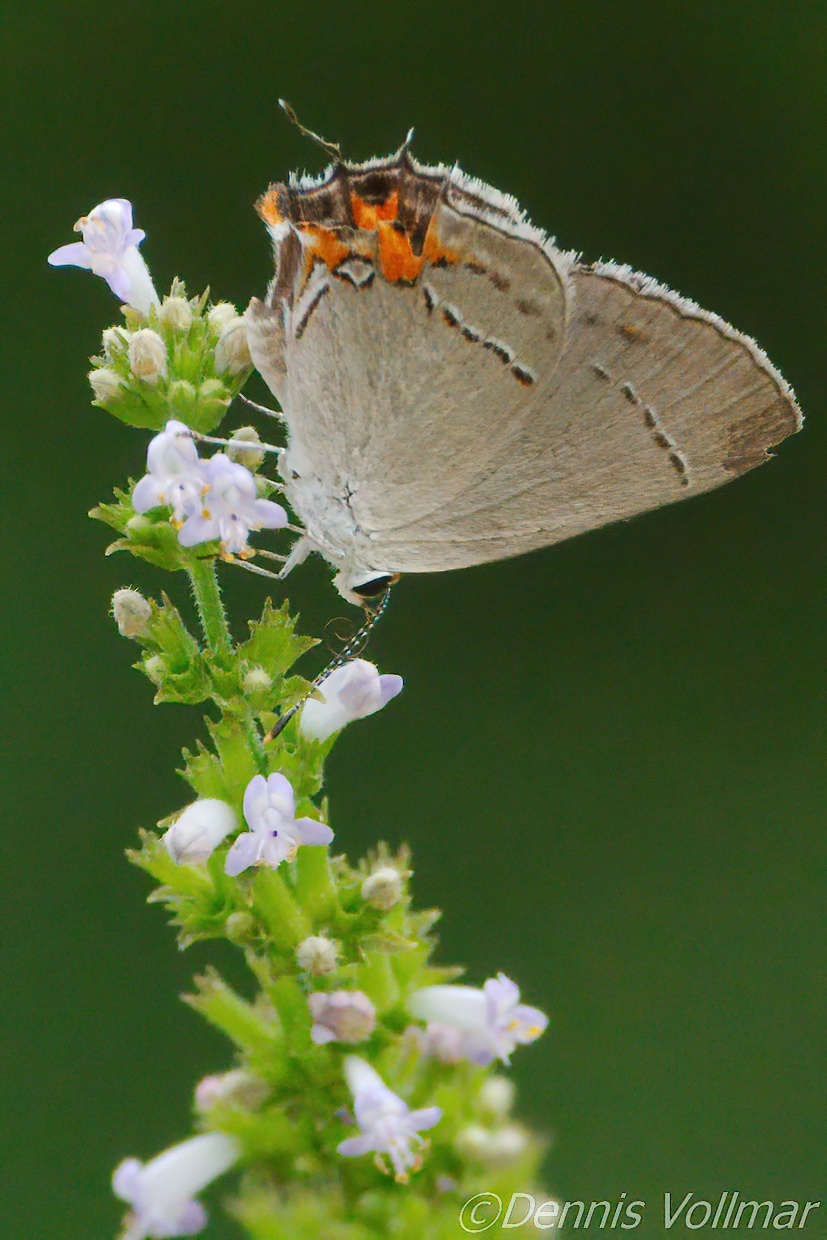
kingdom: Animalia
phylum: Arthropoda
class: Insecta
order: Lepidoptera
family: Lycaenidae
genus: Strymon
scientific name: Strymon melinus
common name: Gray hairstreak
